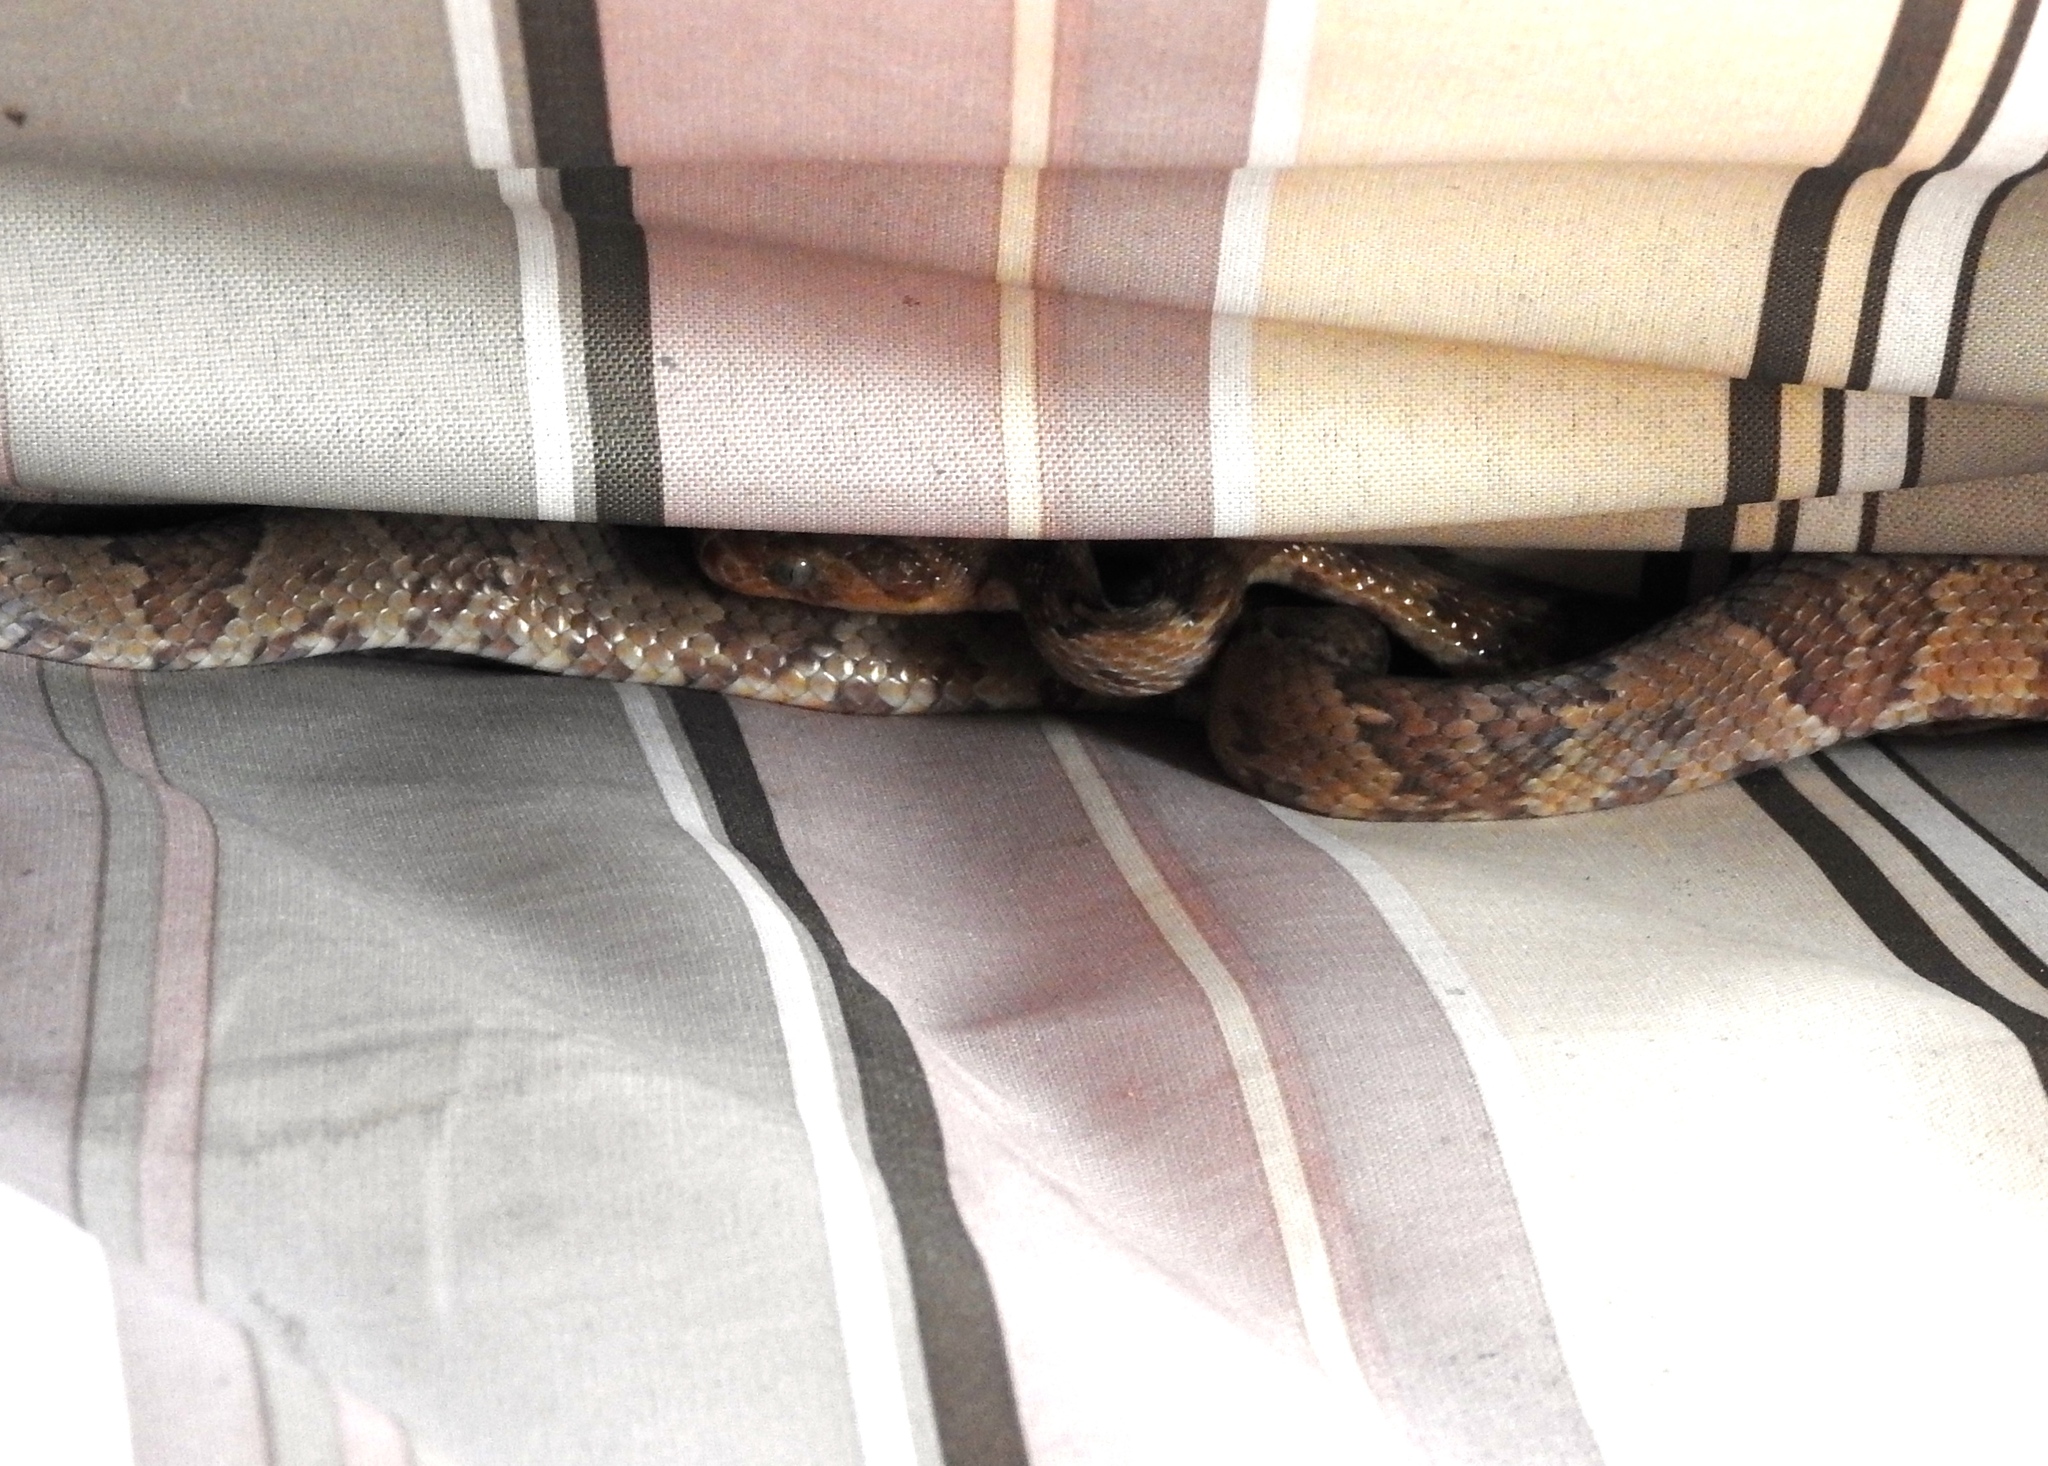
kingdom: Animalia
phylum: Chordata
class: Squamata
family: Colubridae
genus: Trimorphodon
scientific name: Trimorphodon paucimaculatus
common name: Sinaloan lyresnake
